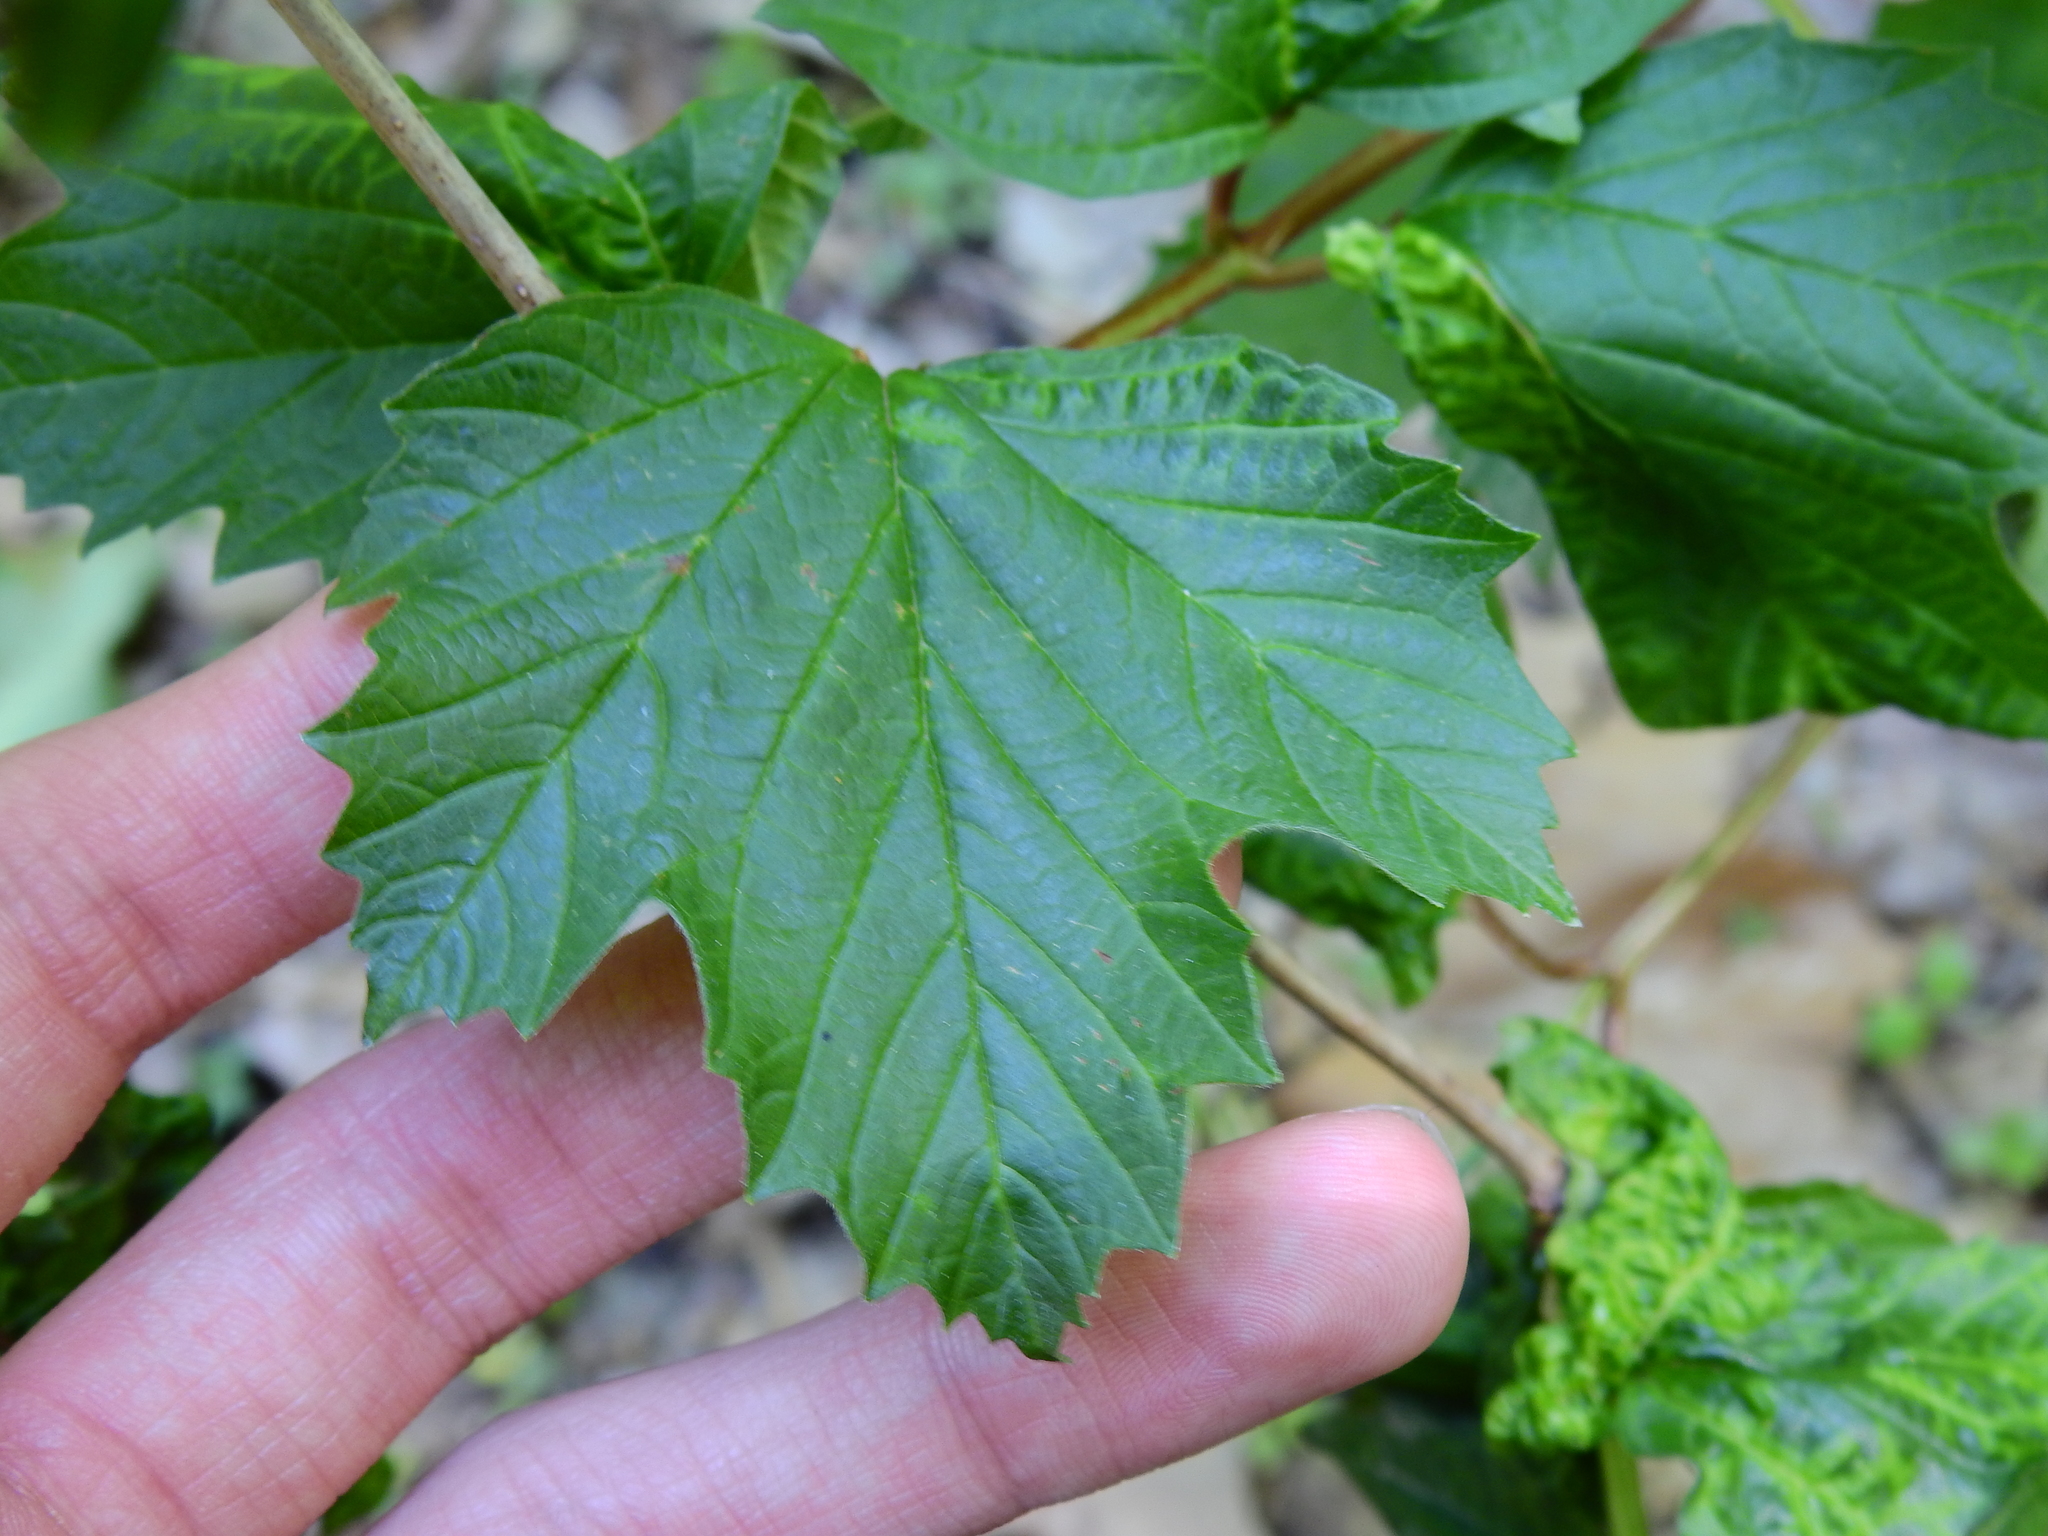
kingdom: Plantae
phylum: Tracheophyta
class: Magnoliopsida
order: Dipsacales
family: Viburnaceae
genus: Viburnum
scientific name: Viburnum opulus
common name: Guelder-rose
